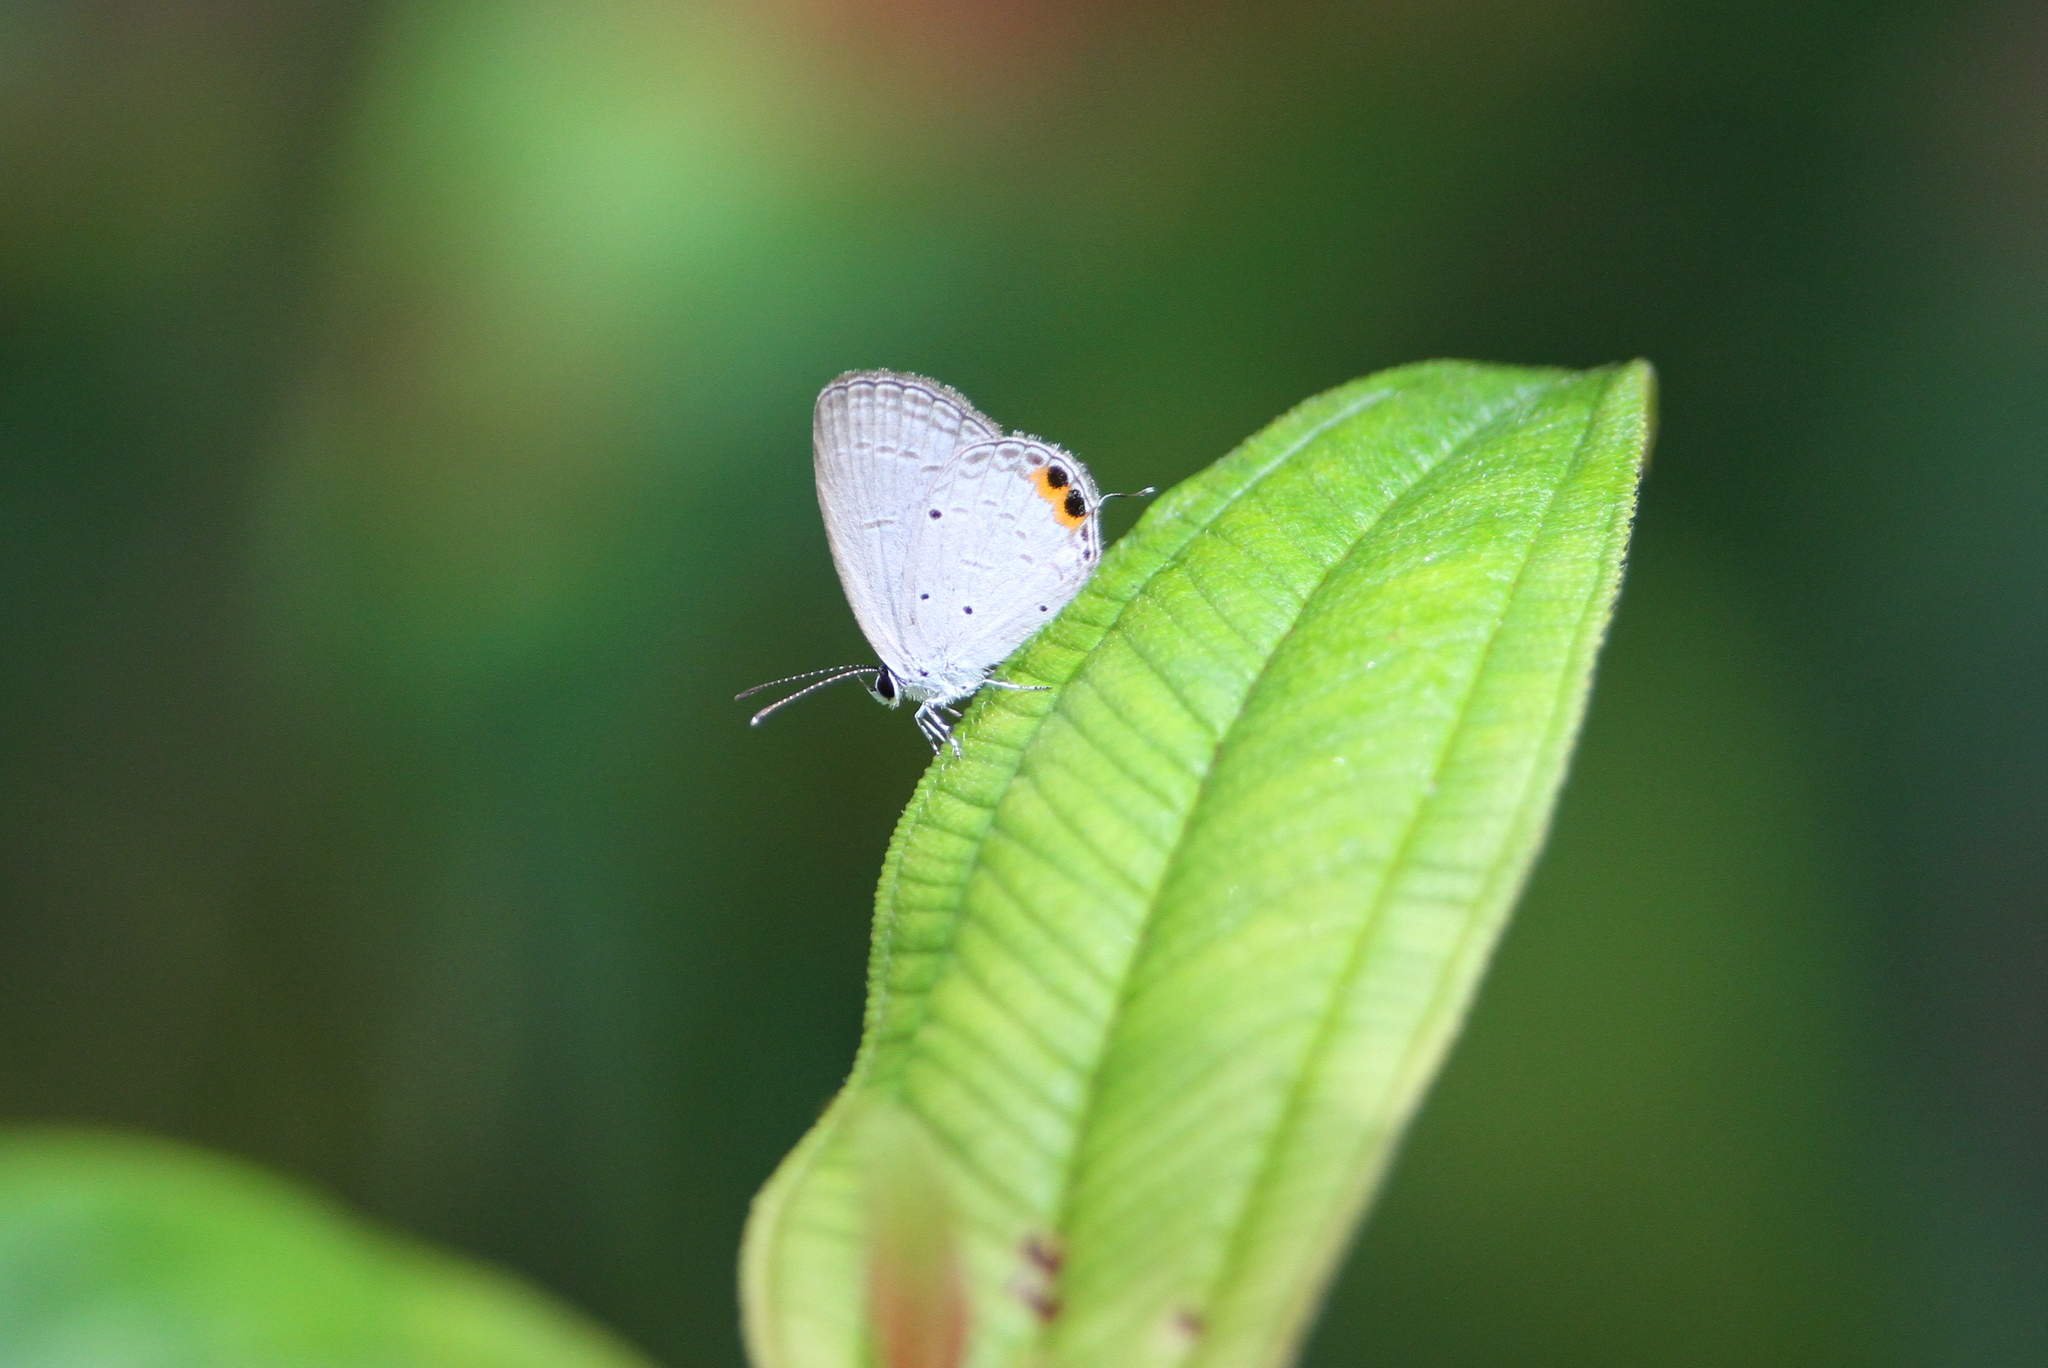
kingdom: Animalia
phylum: Arthropoda
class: Insecta
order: Lepidoptera
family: Lycaenidae
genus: Everes
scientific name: Everes lacturnus
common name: Orange-tipped pea-blue
